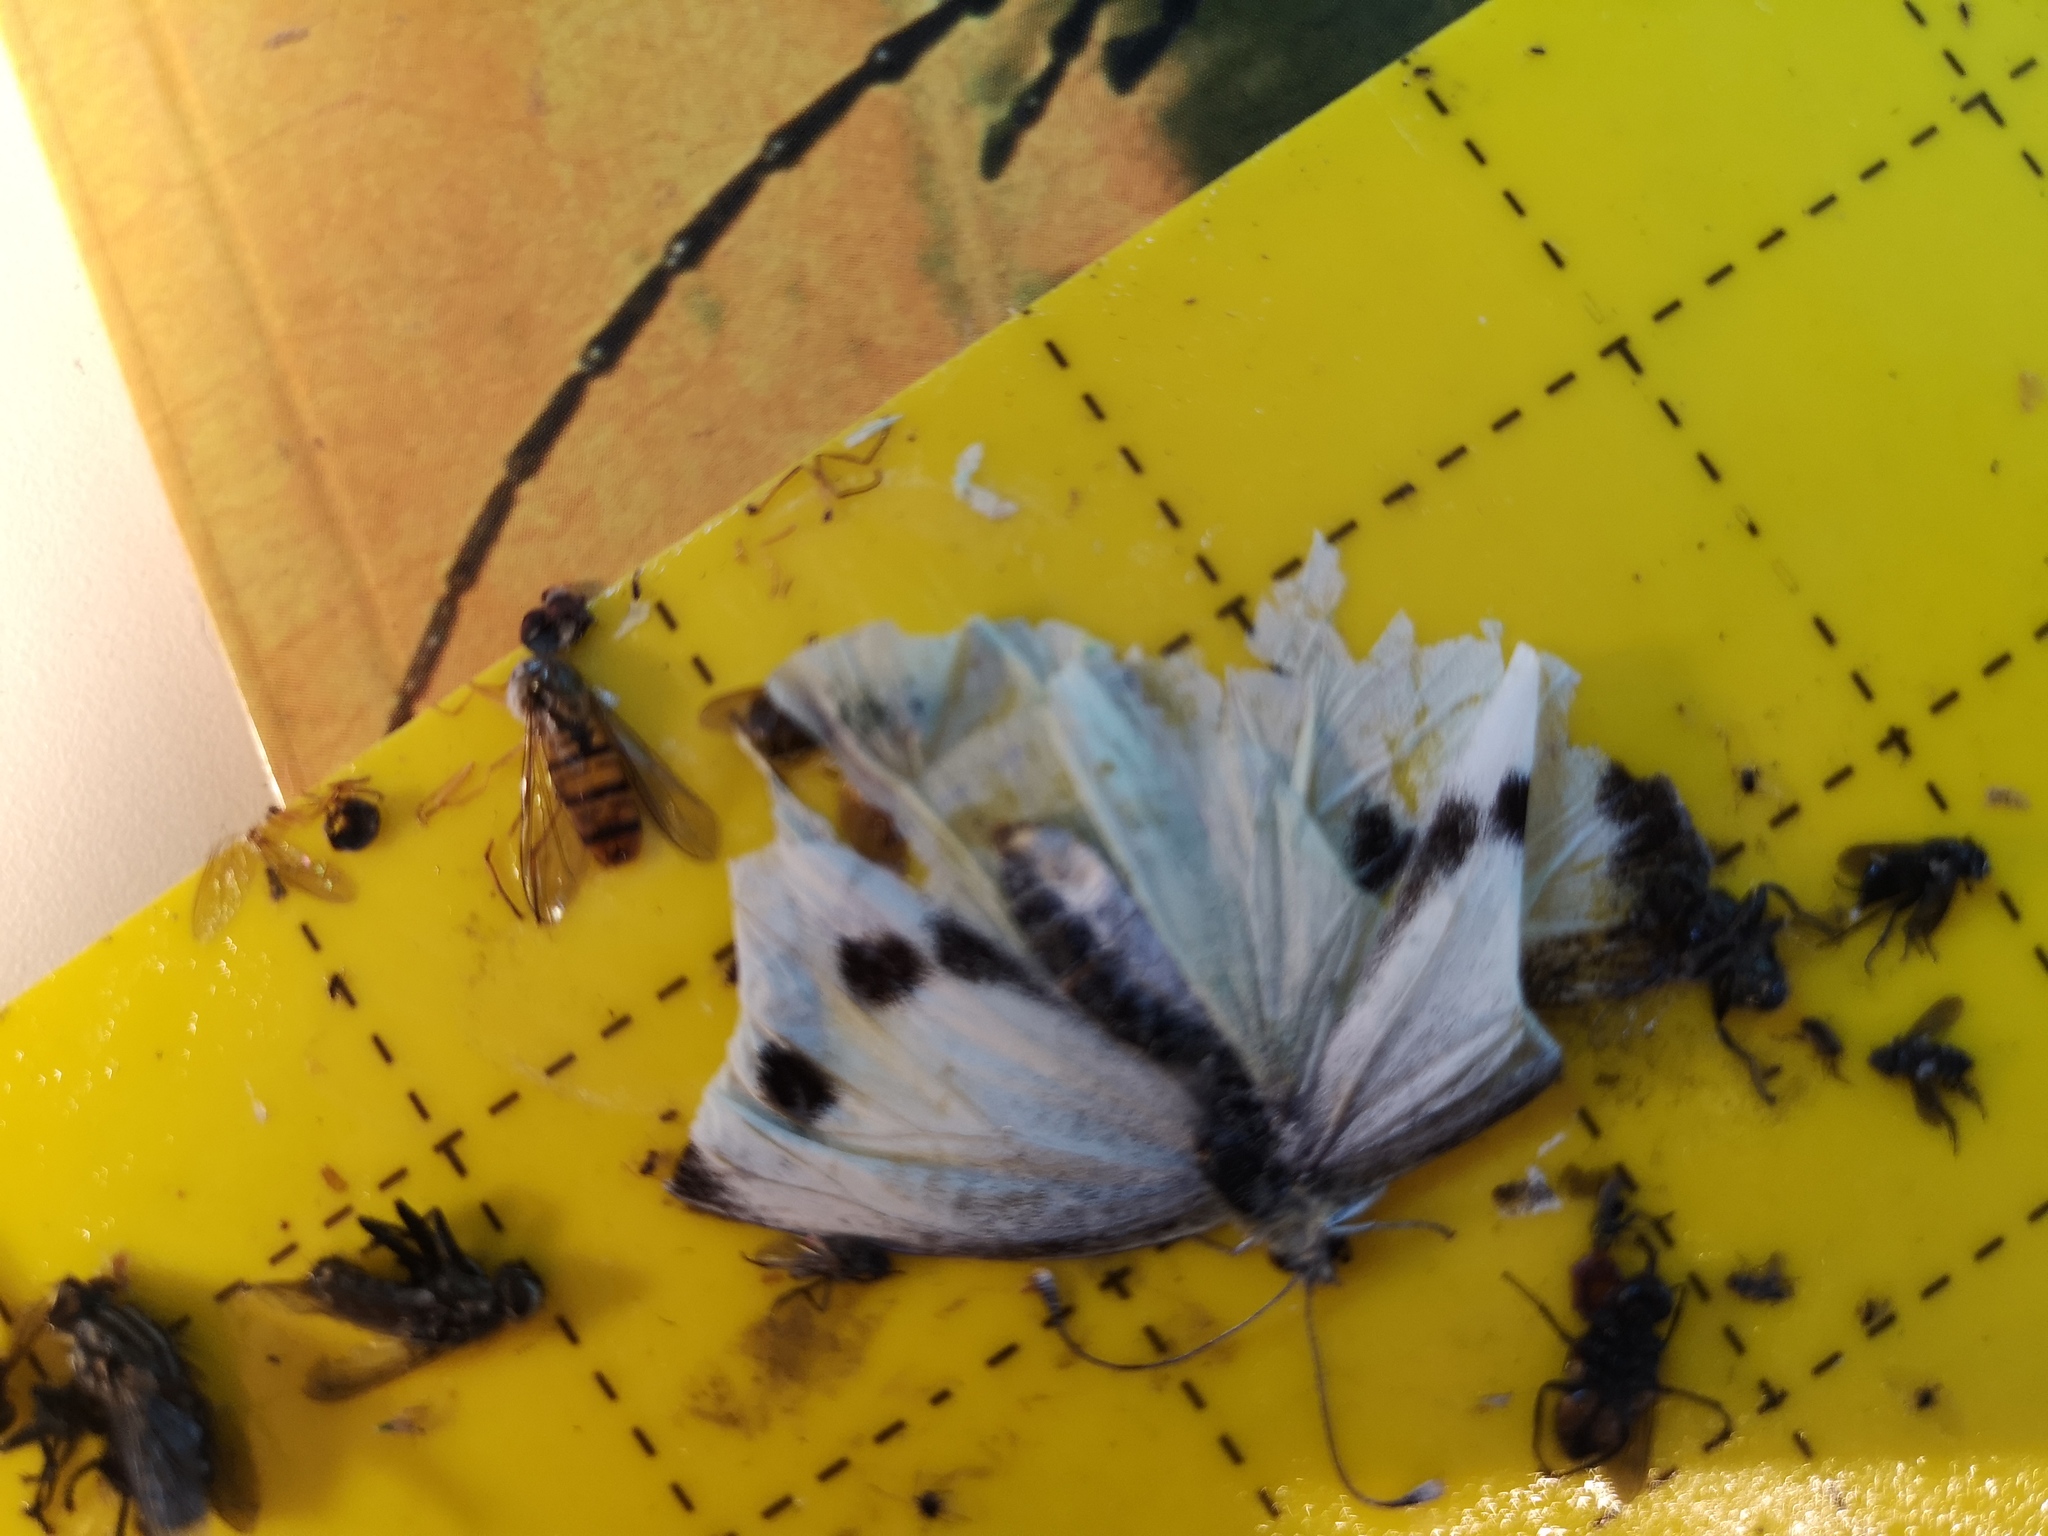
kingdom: Animalia
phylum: Arthropoda
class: Insecta
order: Lepidoptera
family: Pieridae
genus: Pieris
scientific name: Pieris brassicae
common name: Large white
